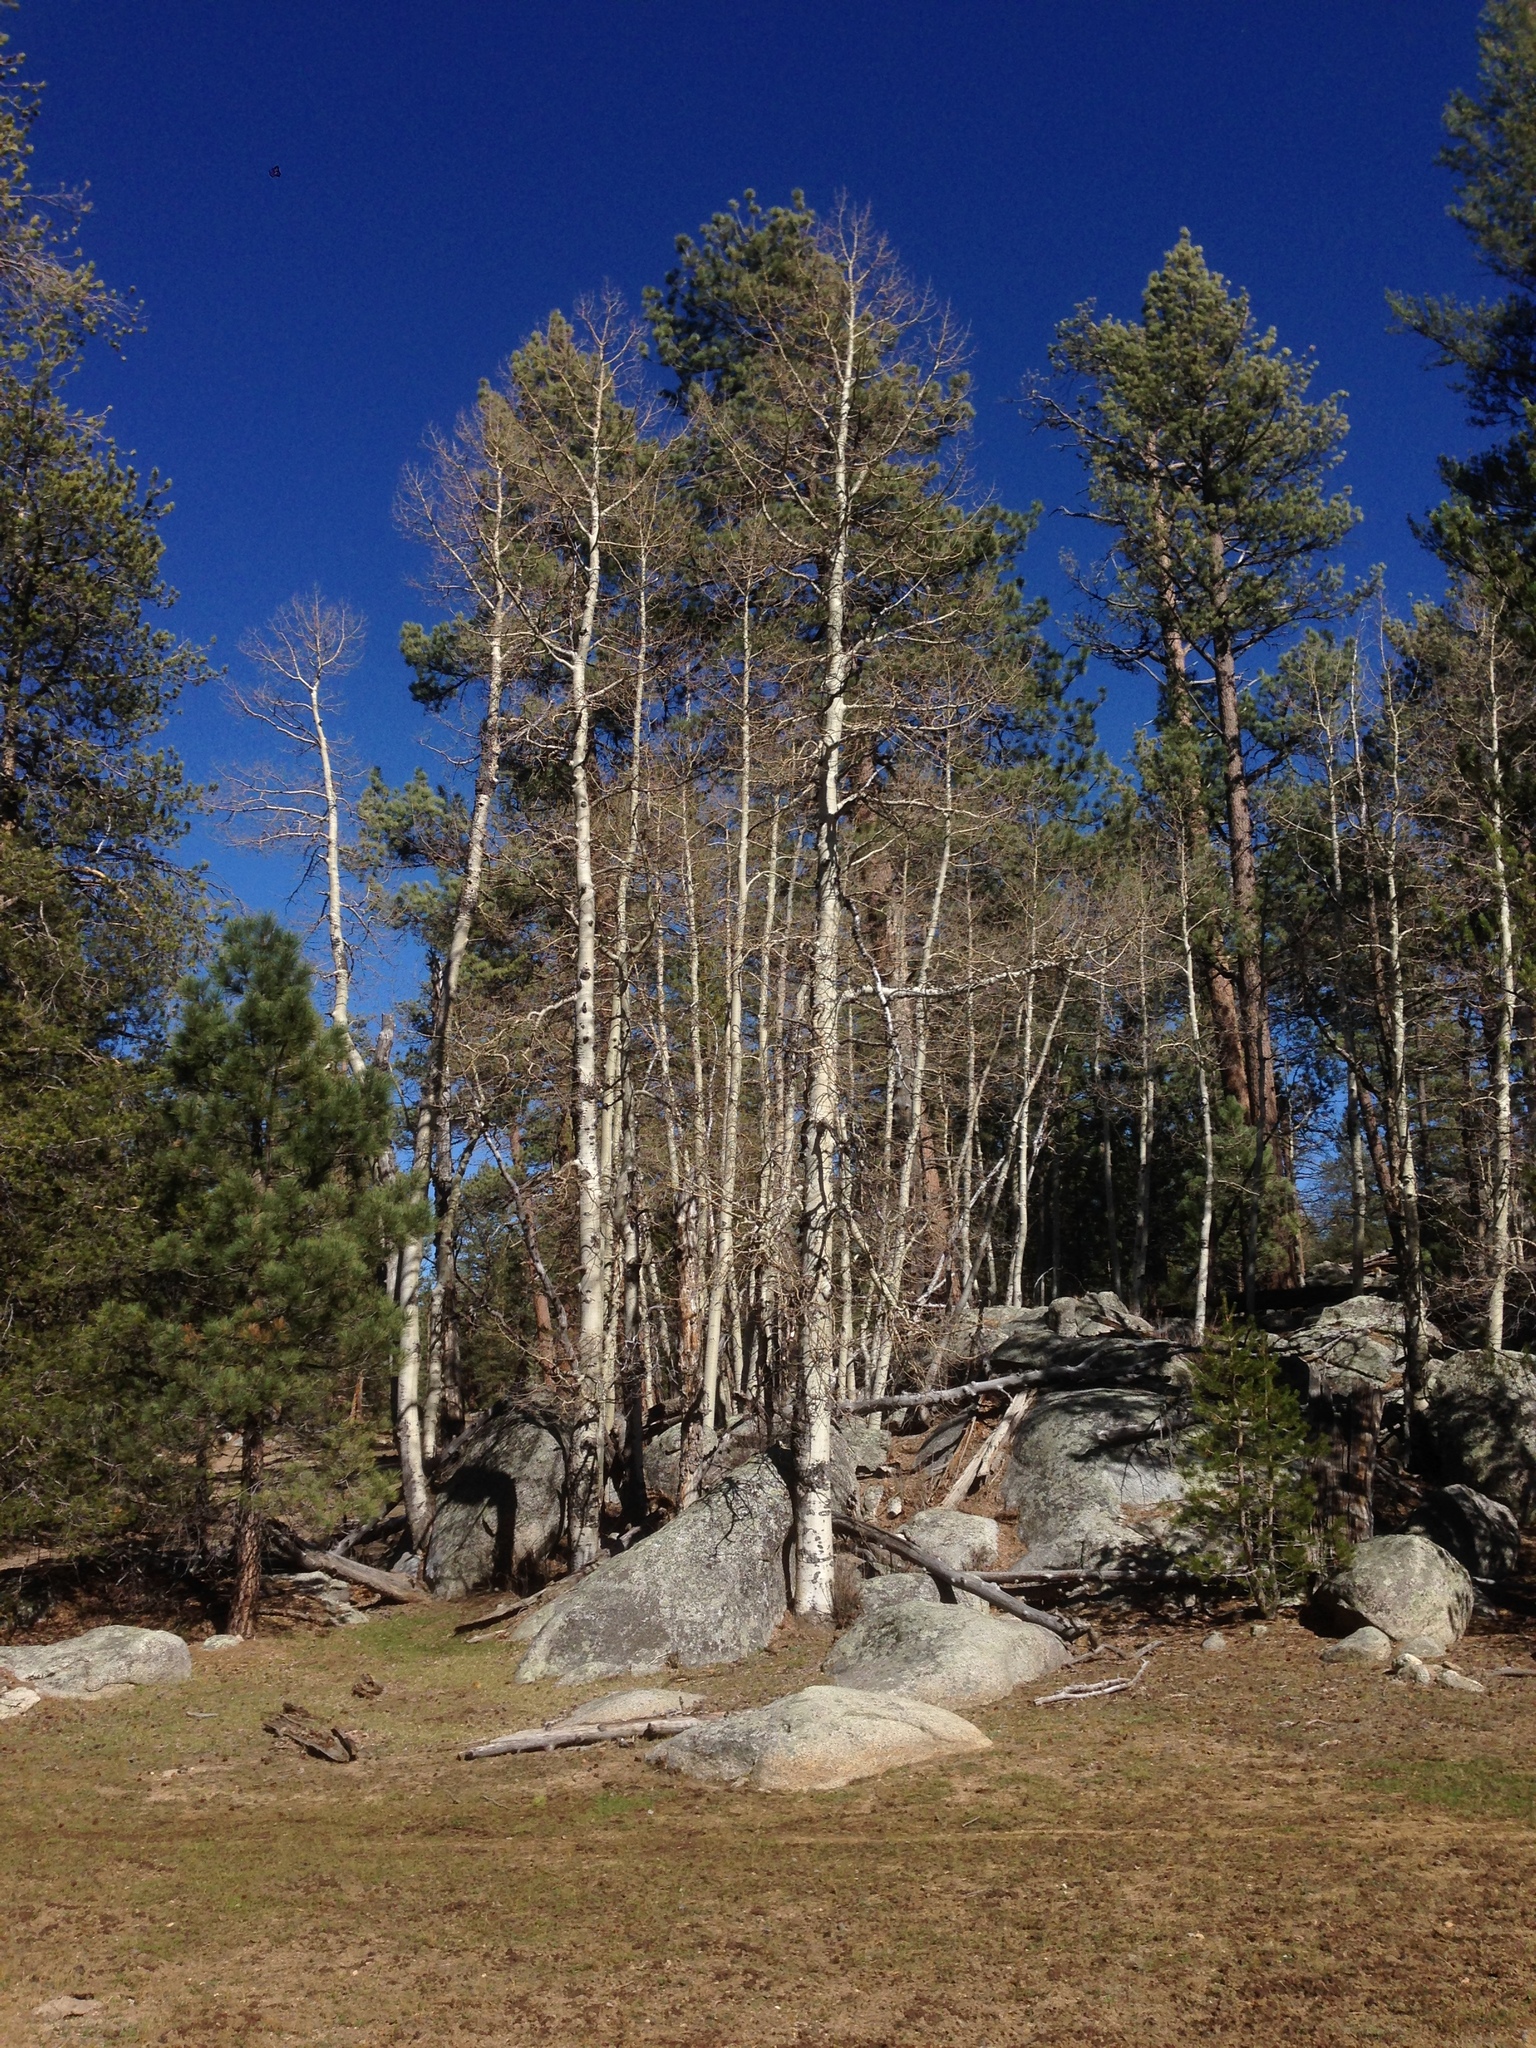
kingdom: Plantae
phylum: Tracheophyta
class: Magnoliopsida
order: Malpighiales
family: Salicaceae
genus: Populus
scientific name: Populus tremuloides
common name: Quaking aspen
